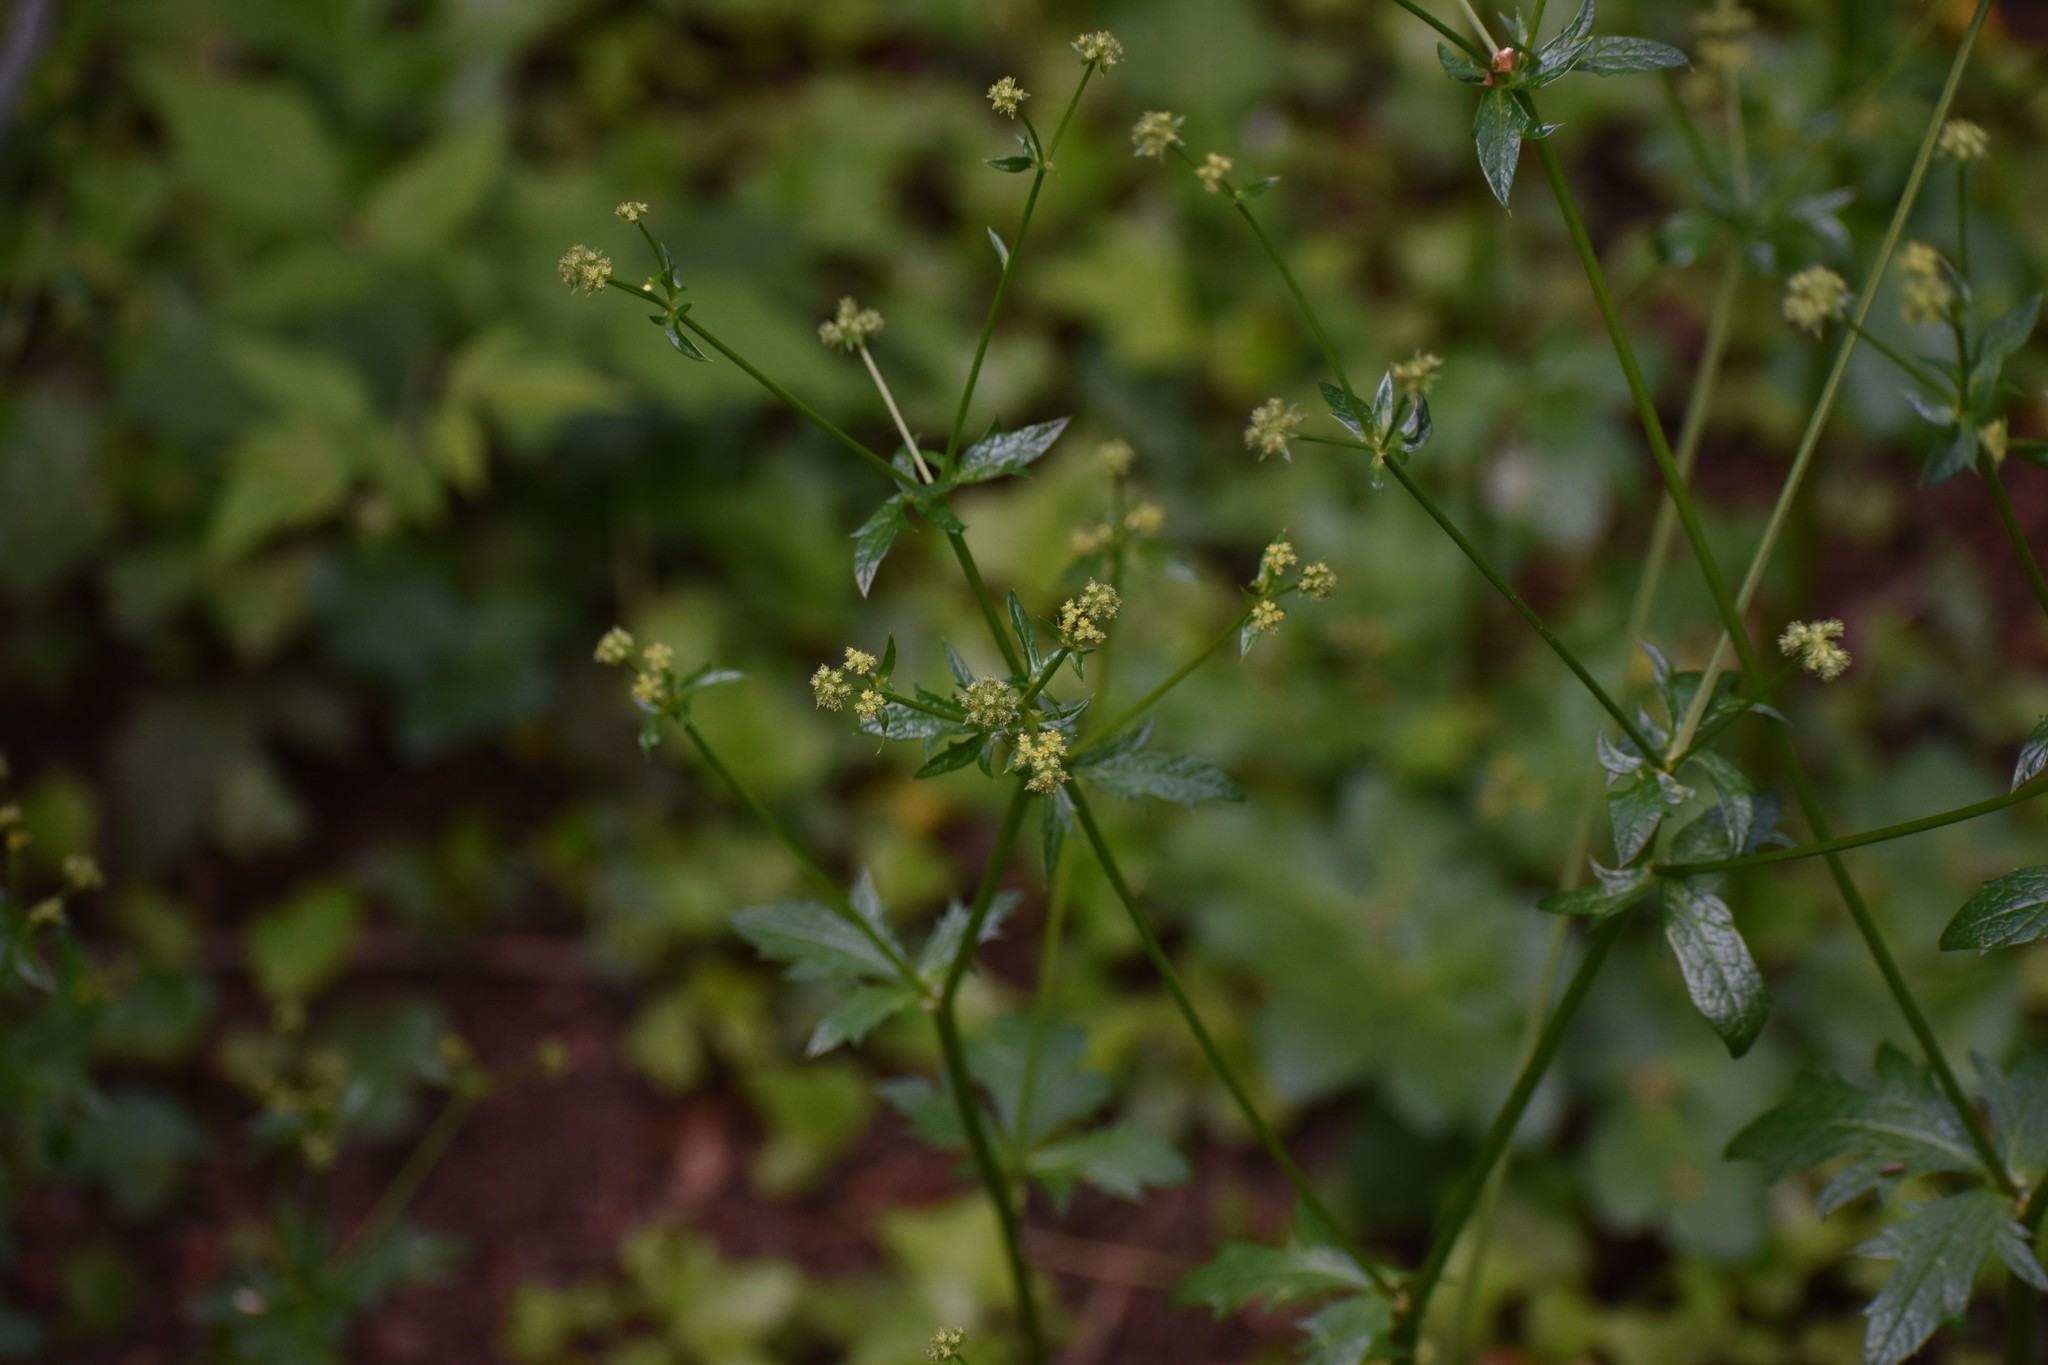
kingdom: Plantae
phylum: Tracheophyta
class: Magnoliopsida
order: Apiales
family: Apiaceae
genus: Sanicula
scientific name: Sanicula crassicaulis
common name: Western snakeroot
